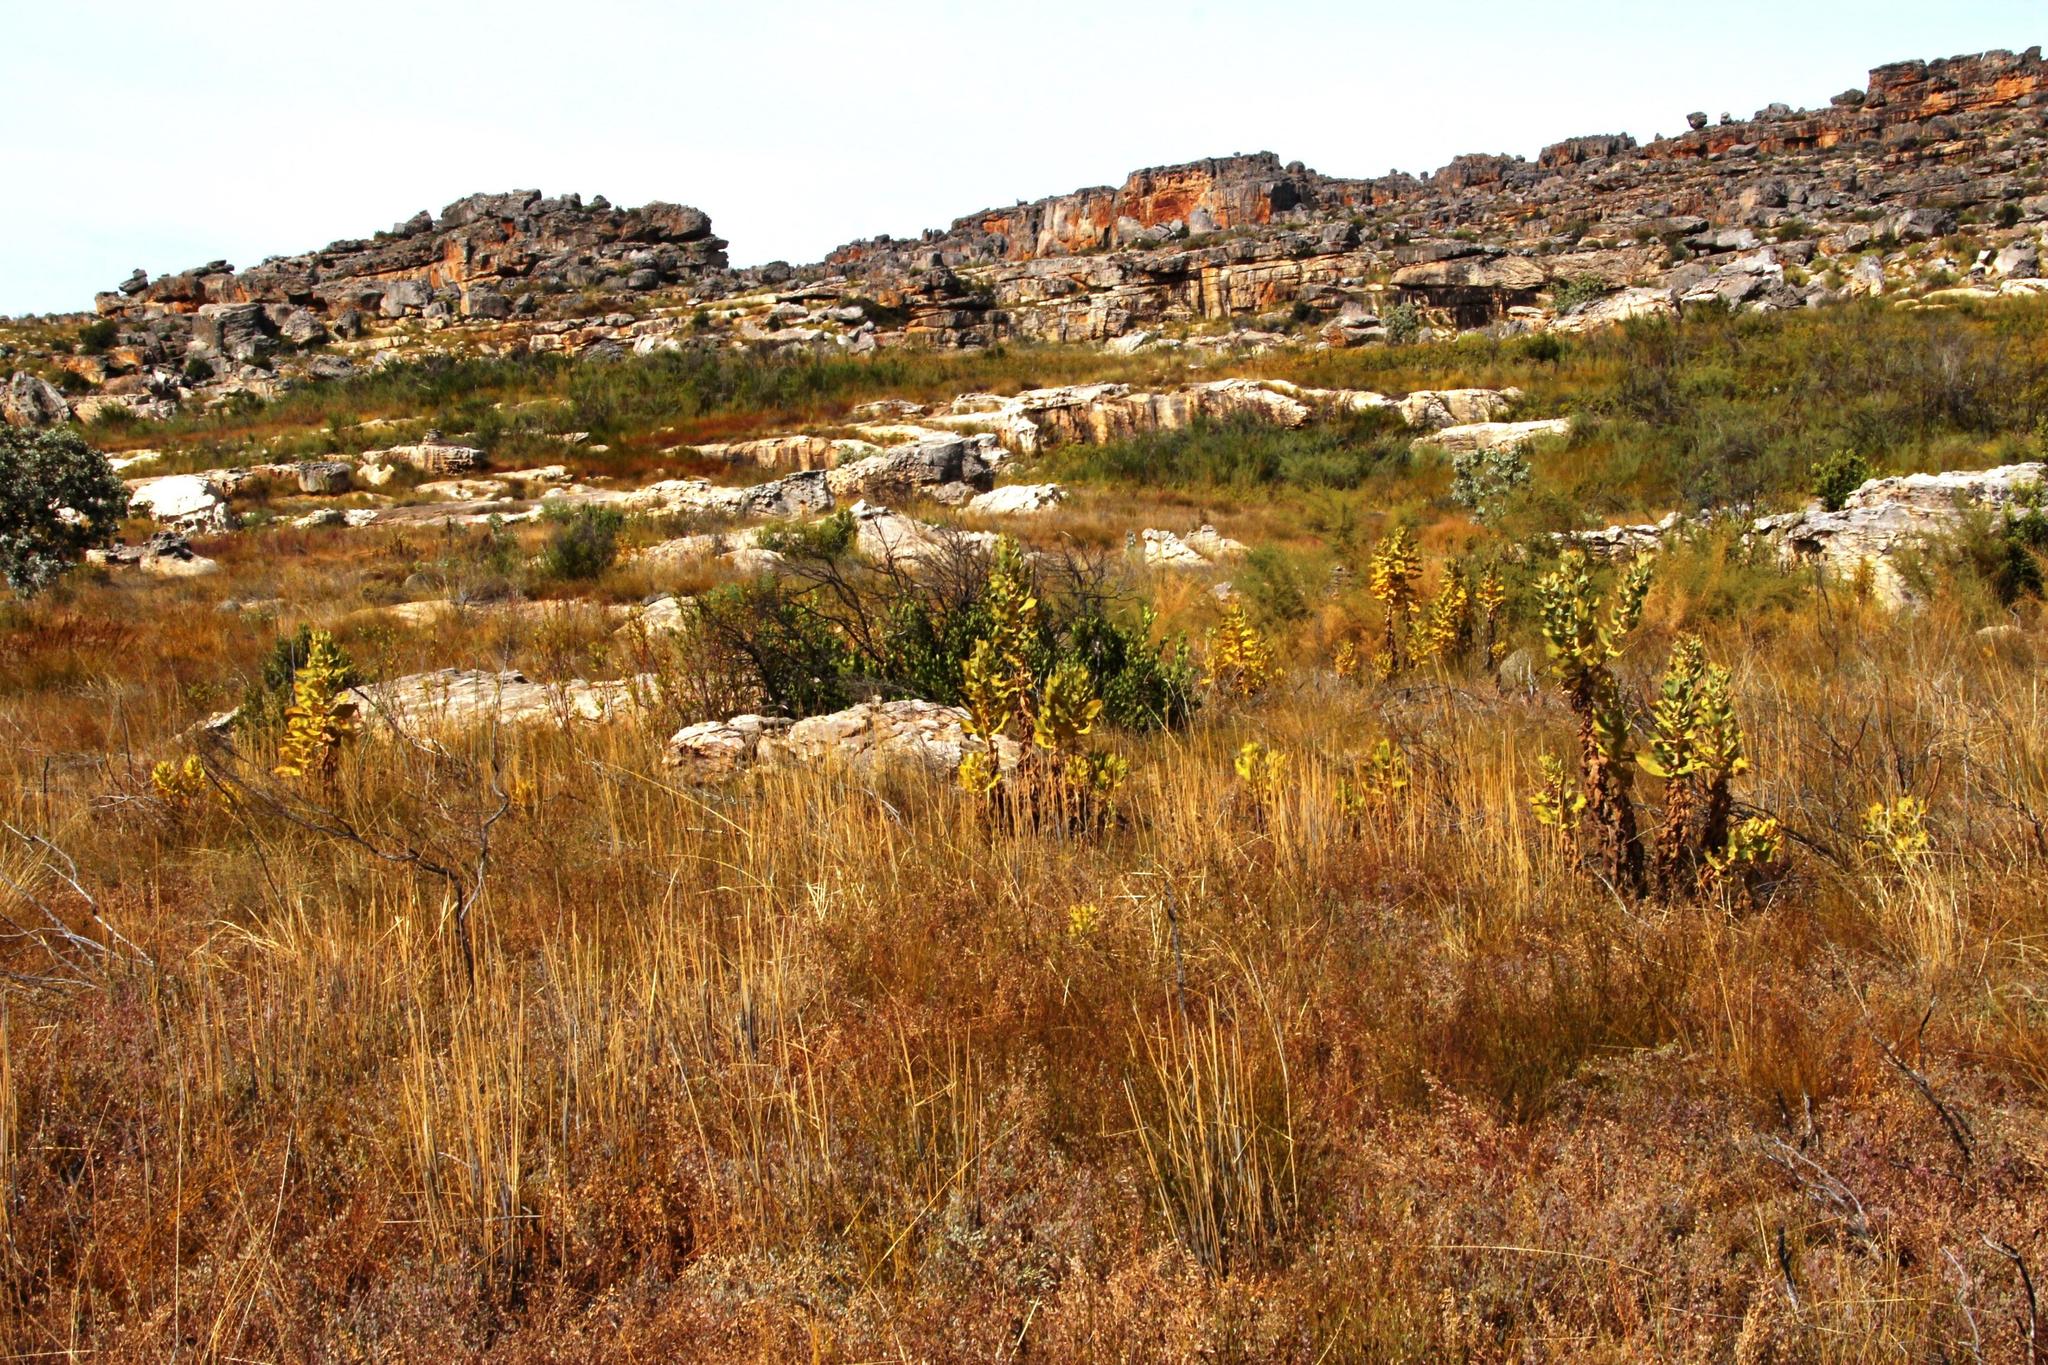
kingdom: Plantae
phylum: Tracheophyta
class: Magnoliopsida
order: Asterales
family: Asteraceae
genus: Othonna
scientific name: Othonna parviflora
